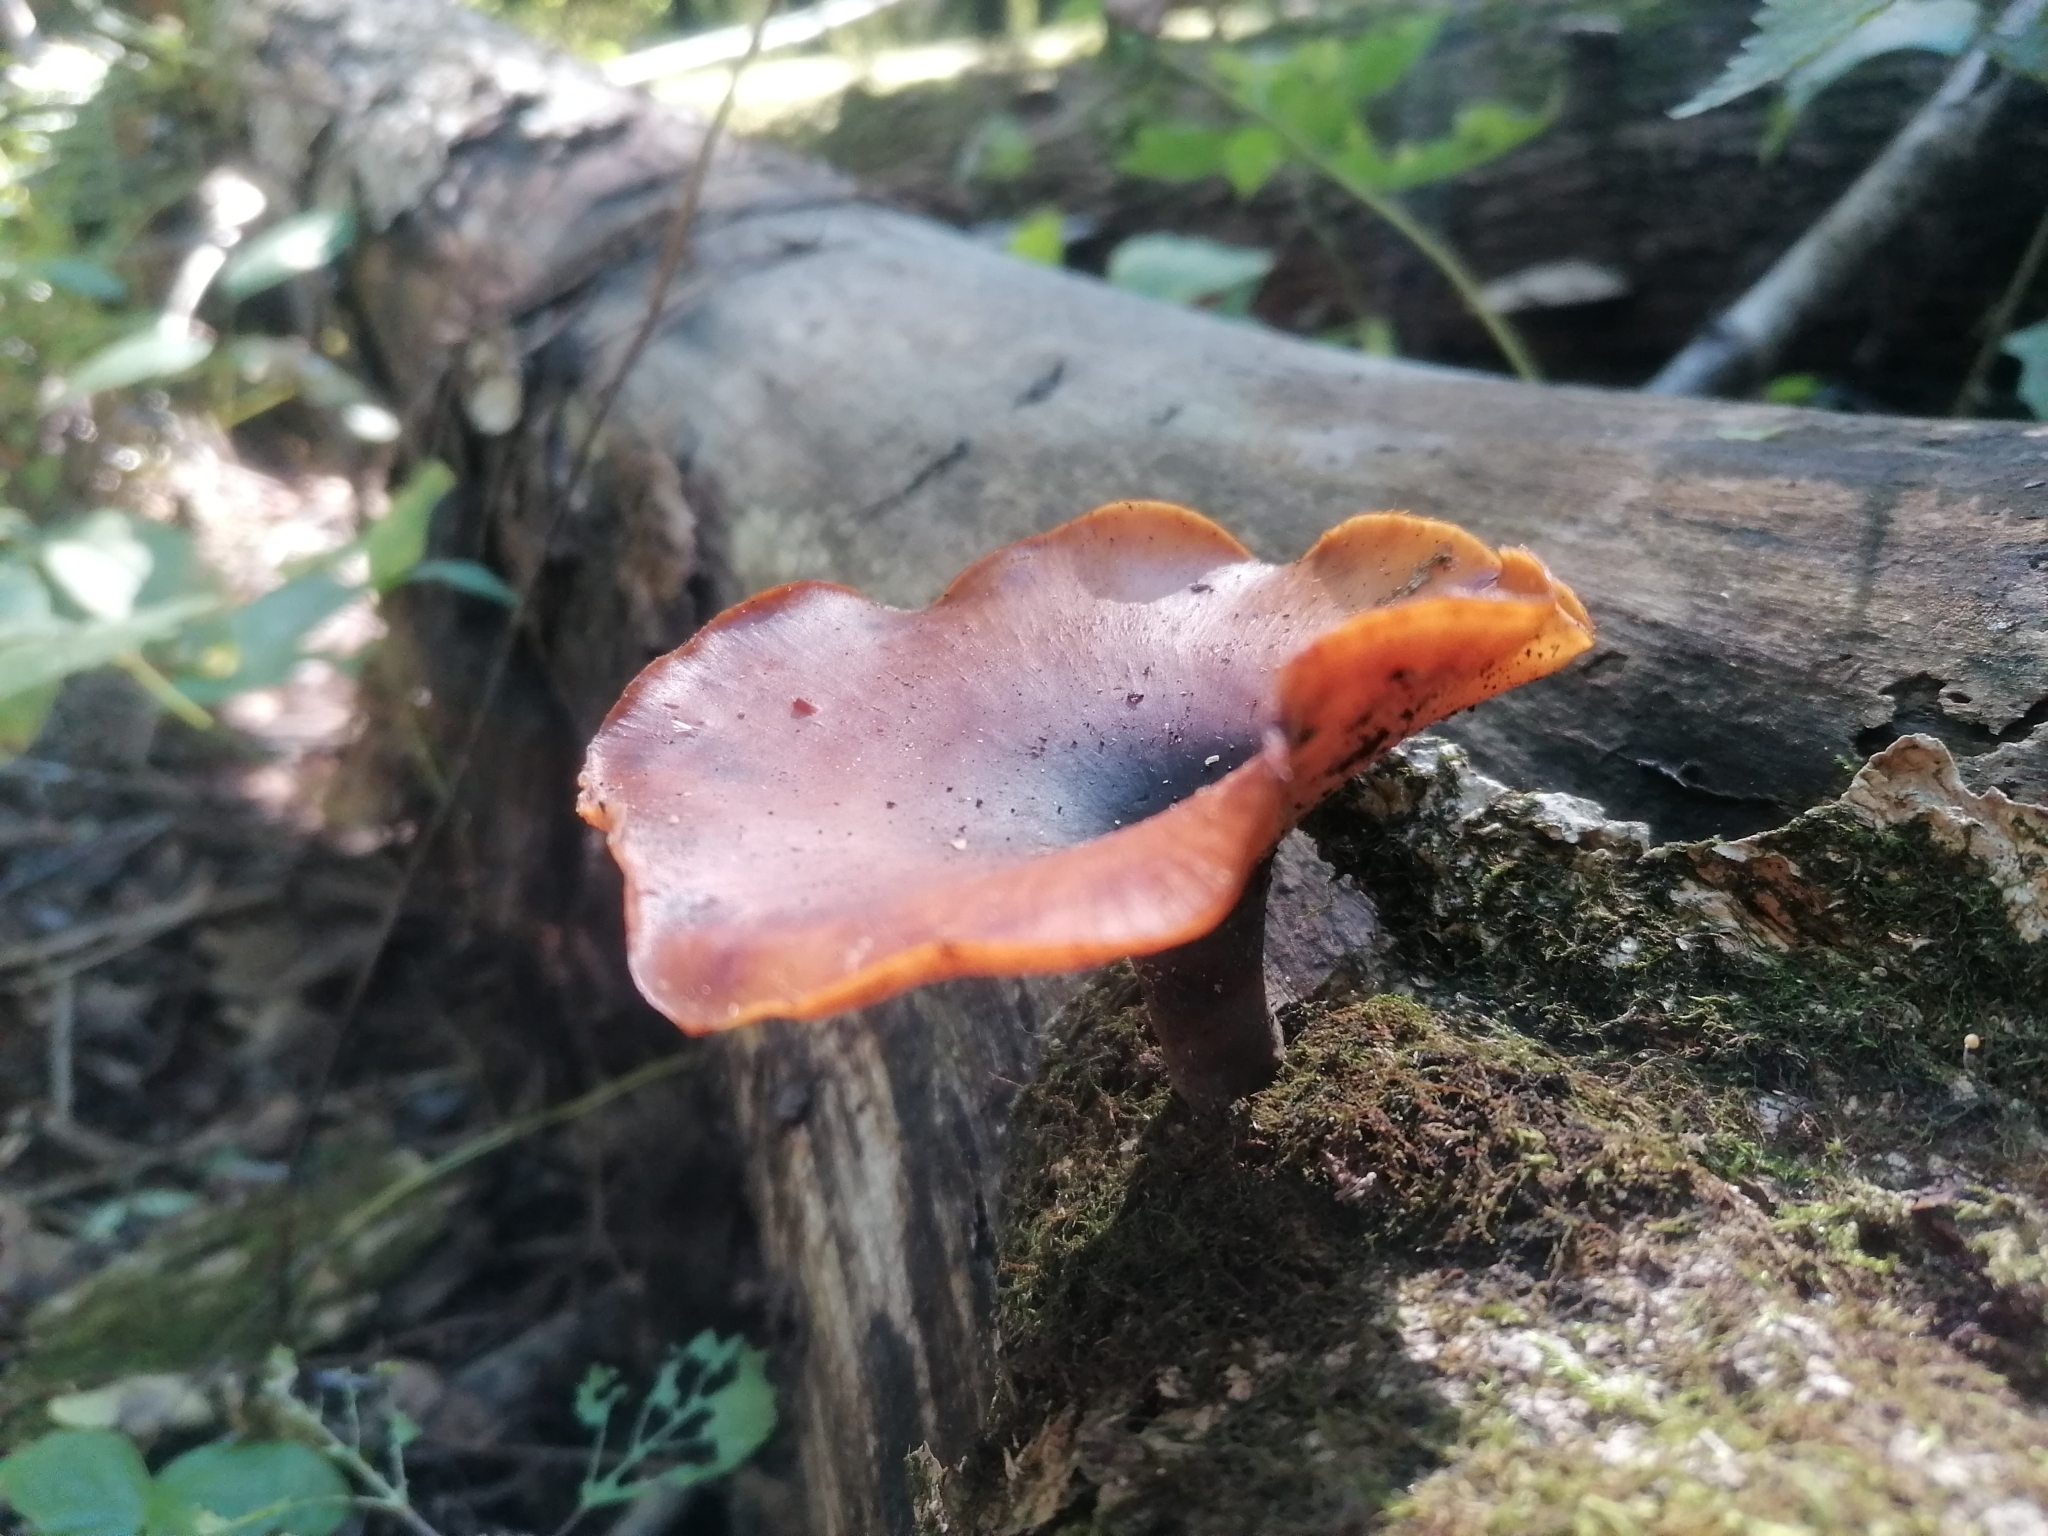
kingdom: Fungi
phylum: Basidiomycota
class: Agaricomycetes
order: Polyporales
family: Polyporaceae
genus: Picipes
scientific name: Picipes badius
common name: Bay polypore
